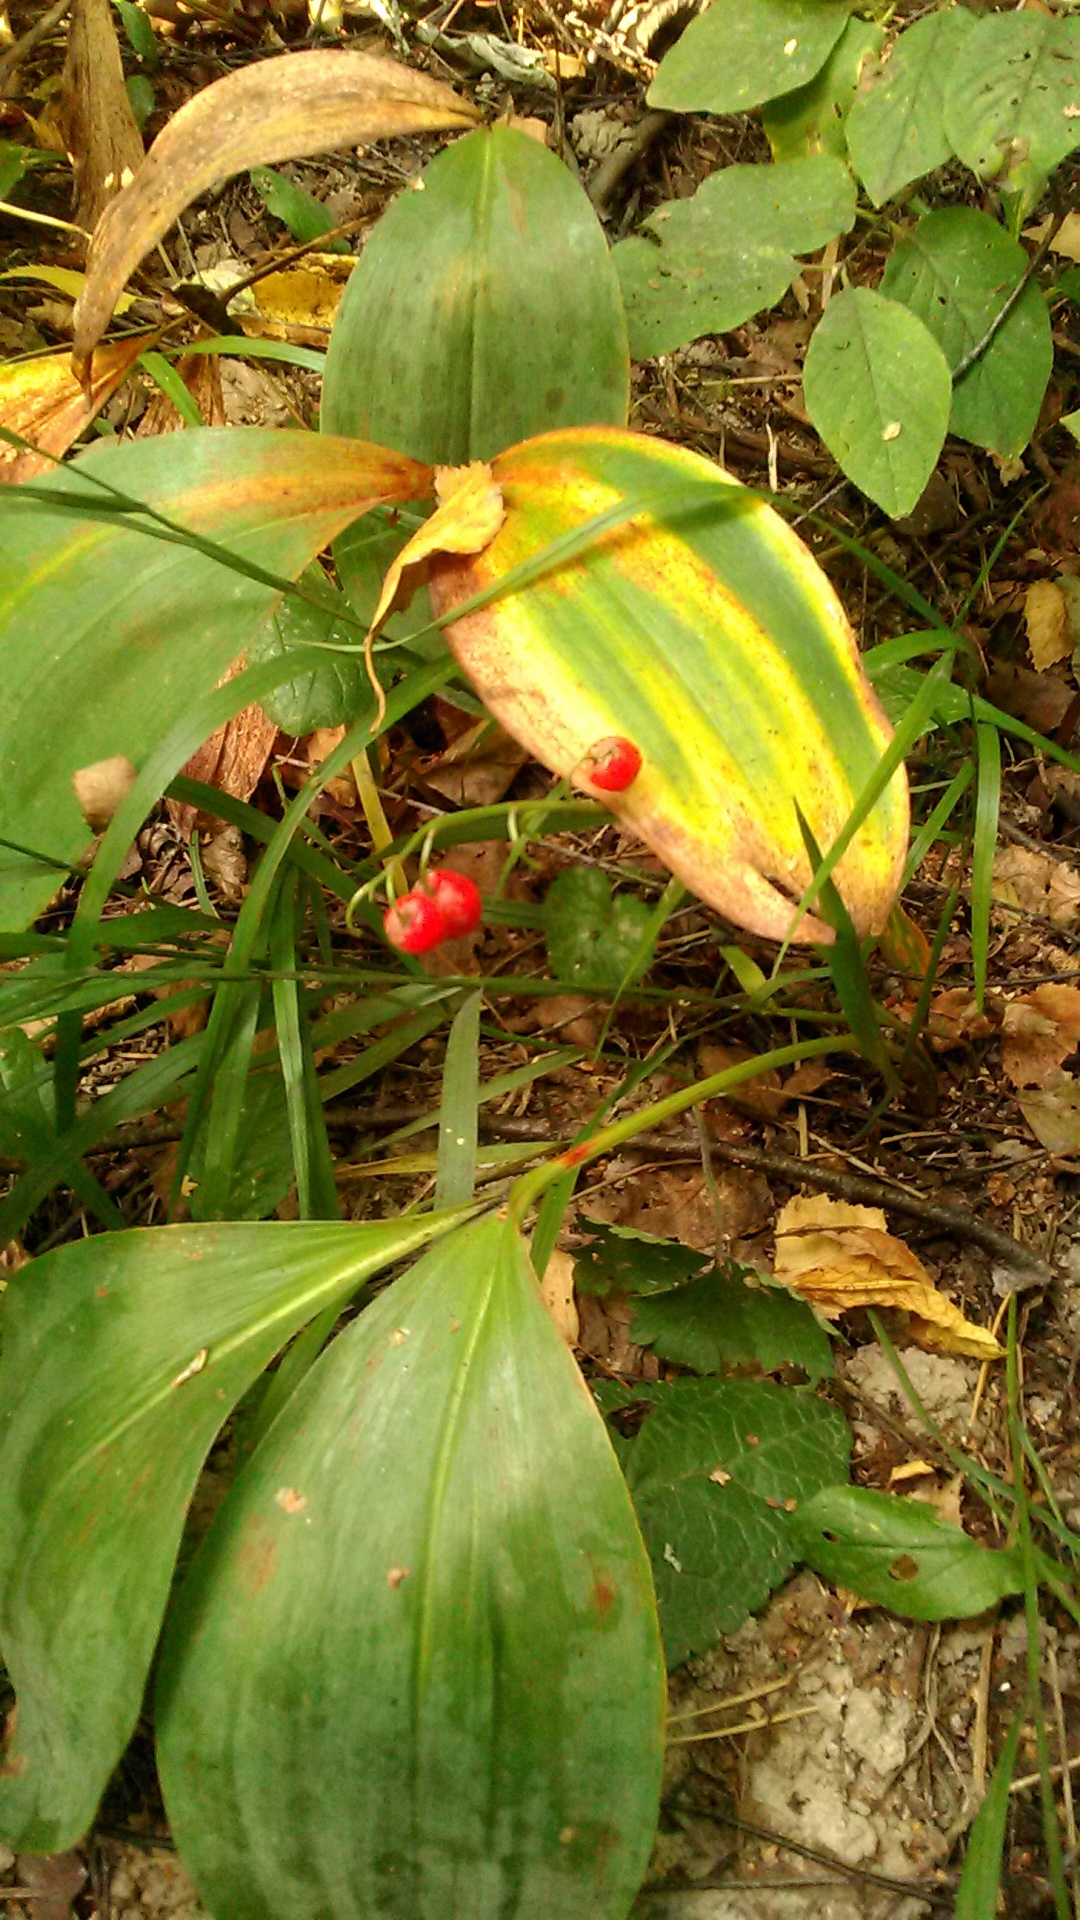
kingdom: Plantae
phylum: Tracheophyta
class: Liliopsida
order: Asparagales
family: Asparagaceae
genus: Convallaria
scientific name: Convallaria majalis
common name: Lily-of-the-valley
